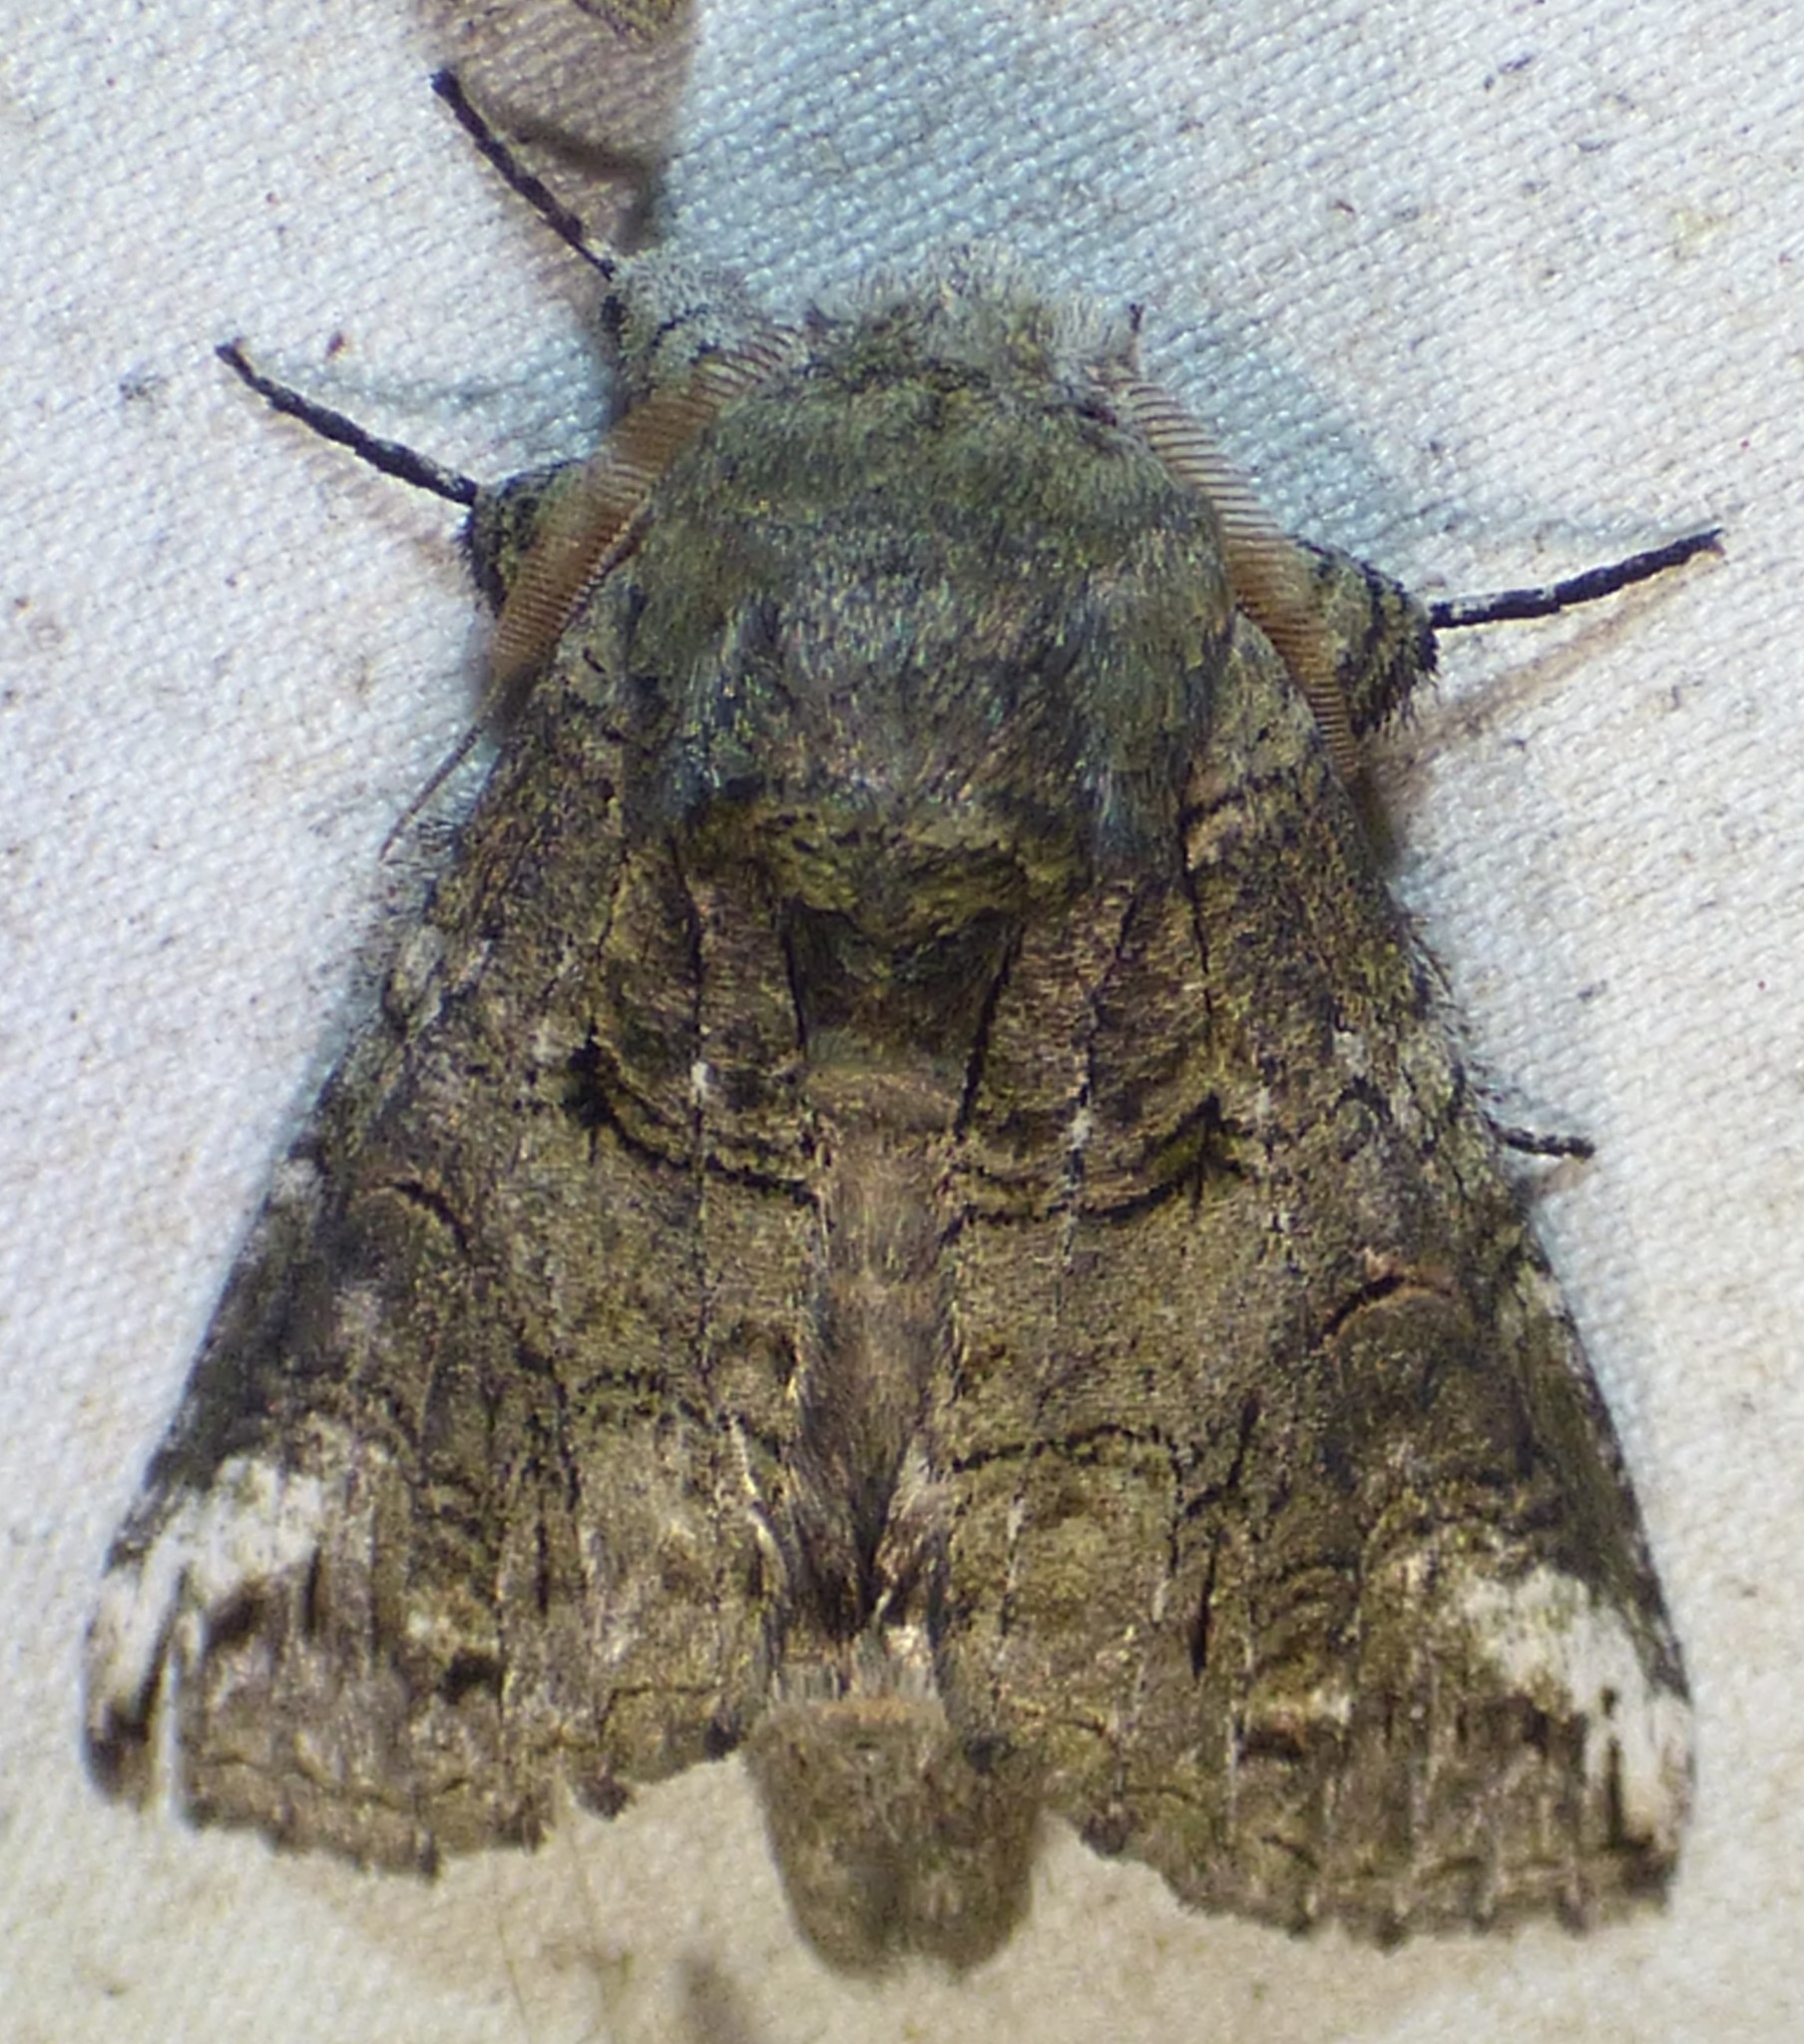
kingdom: Animalia
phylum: Arthropoda
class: Insecta
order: Lepidoptera
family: Notodontidae
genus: Heterocampa
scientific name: Heterocampa obliqua
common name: Oblique heterocampa
